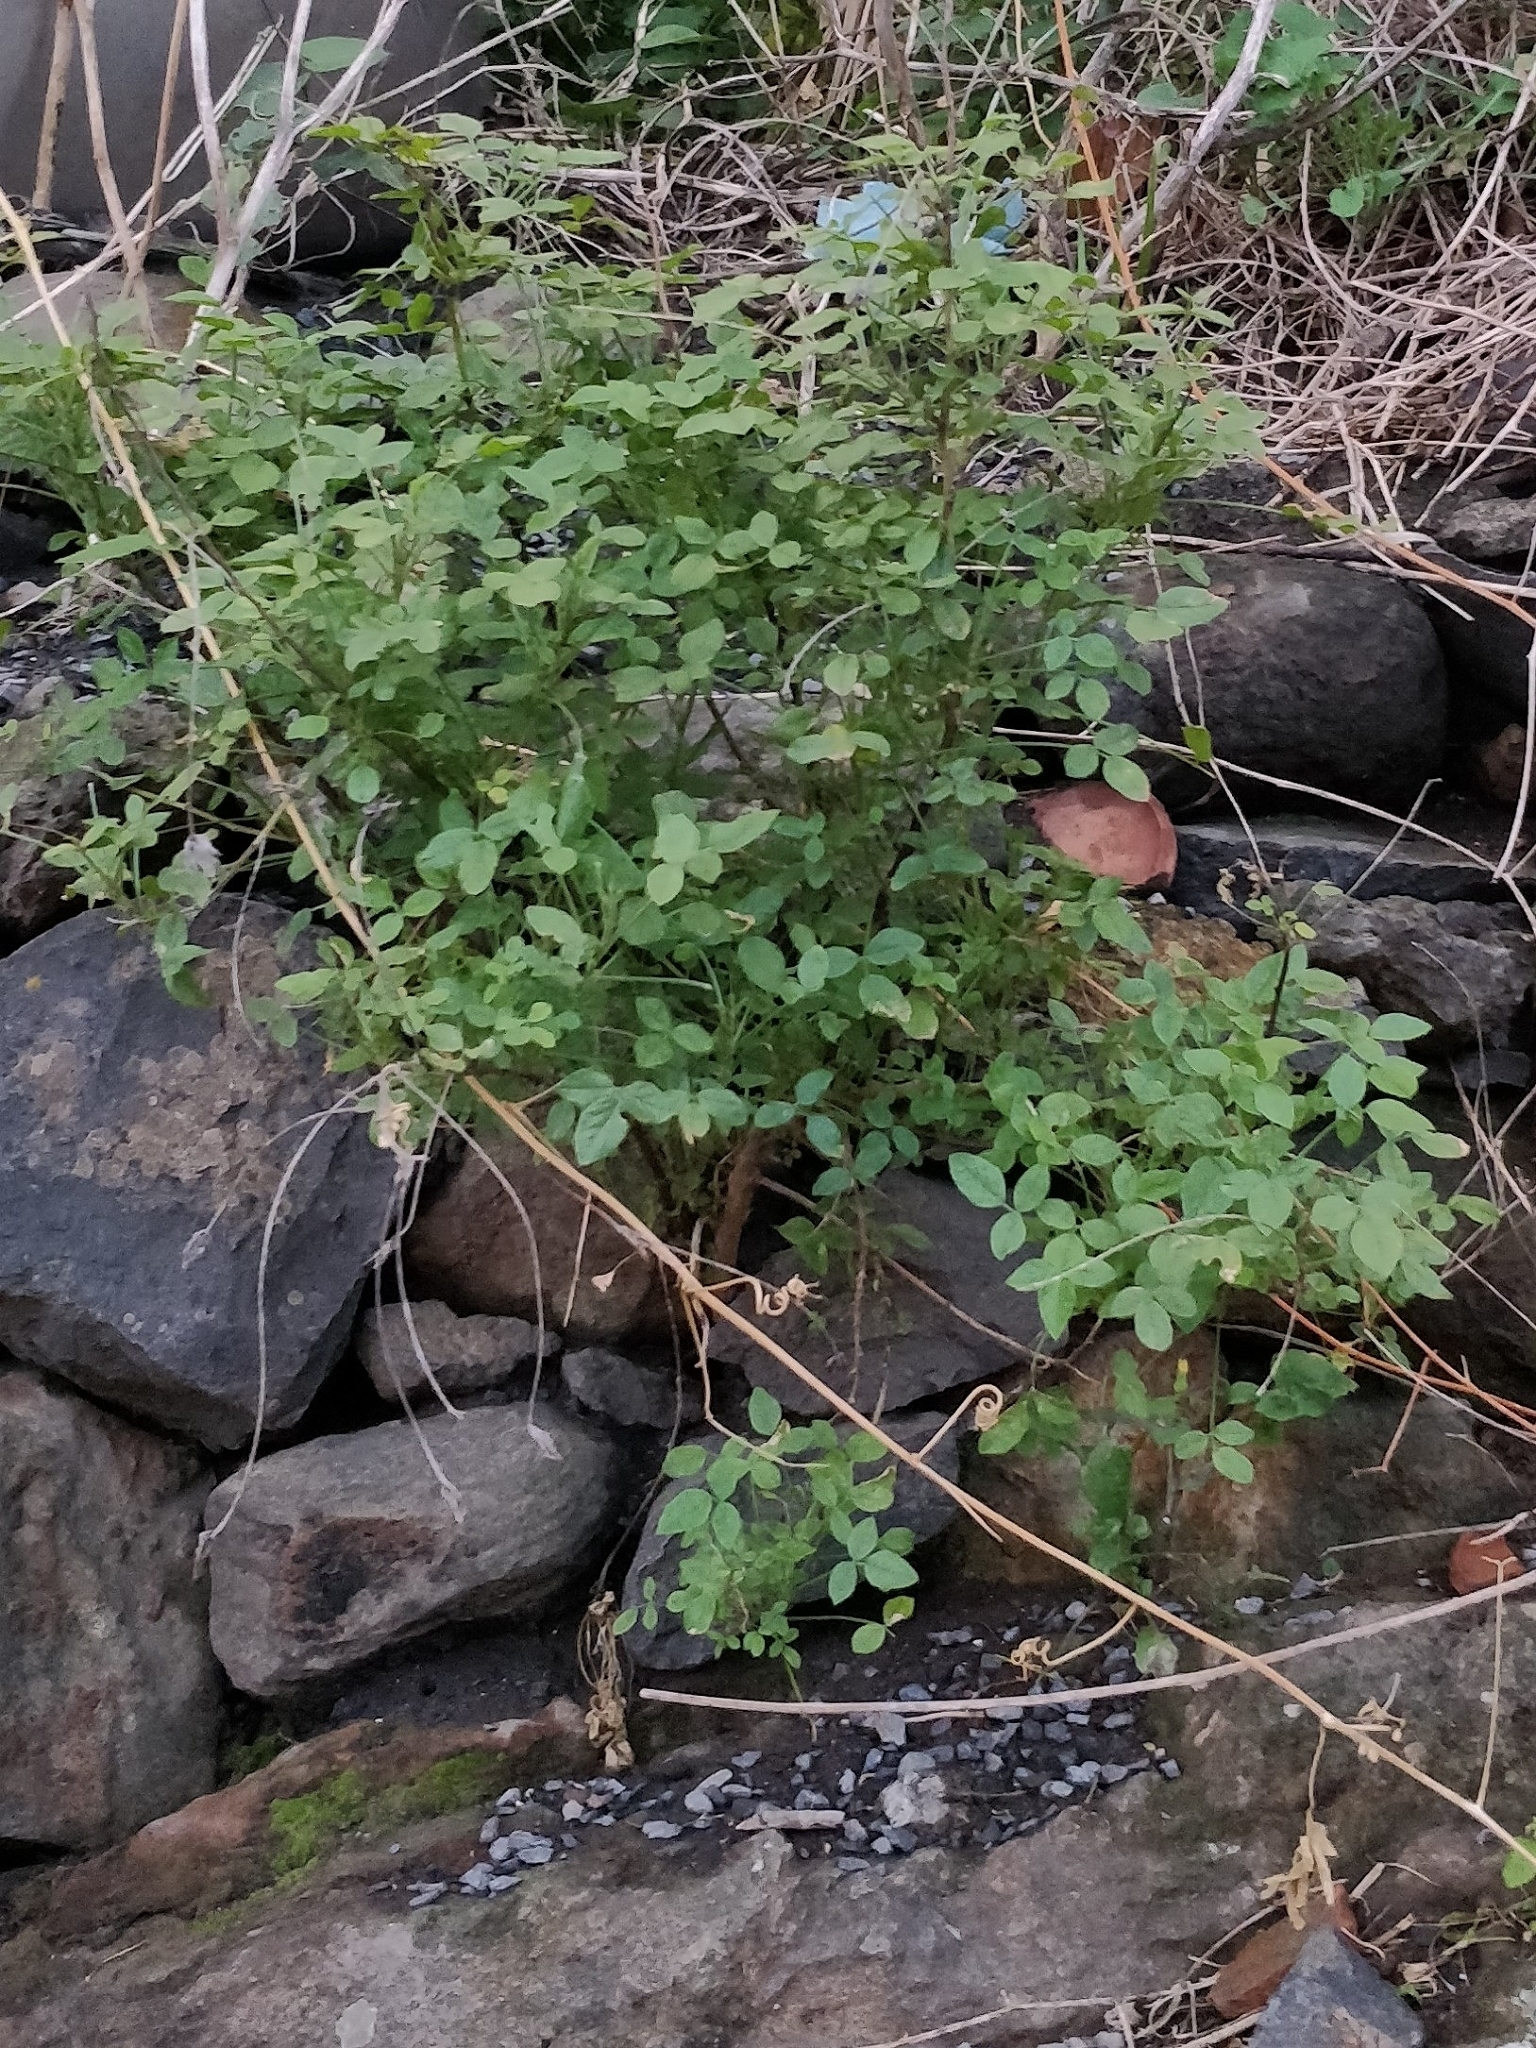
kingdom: Plantae
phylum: Tracheophyta
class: Magnoliopsida
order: Fabales
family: Fabaceae
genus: Bituminaria
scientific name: Bituminaria bituminosa
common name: Arabian pea
